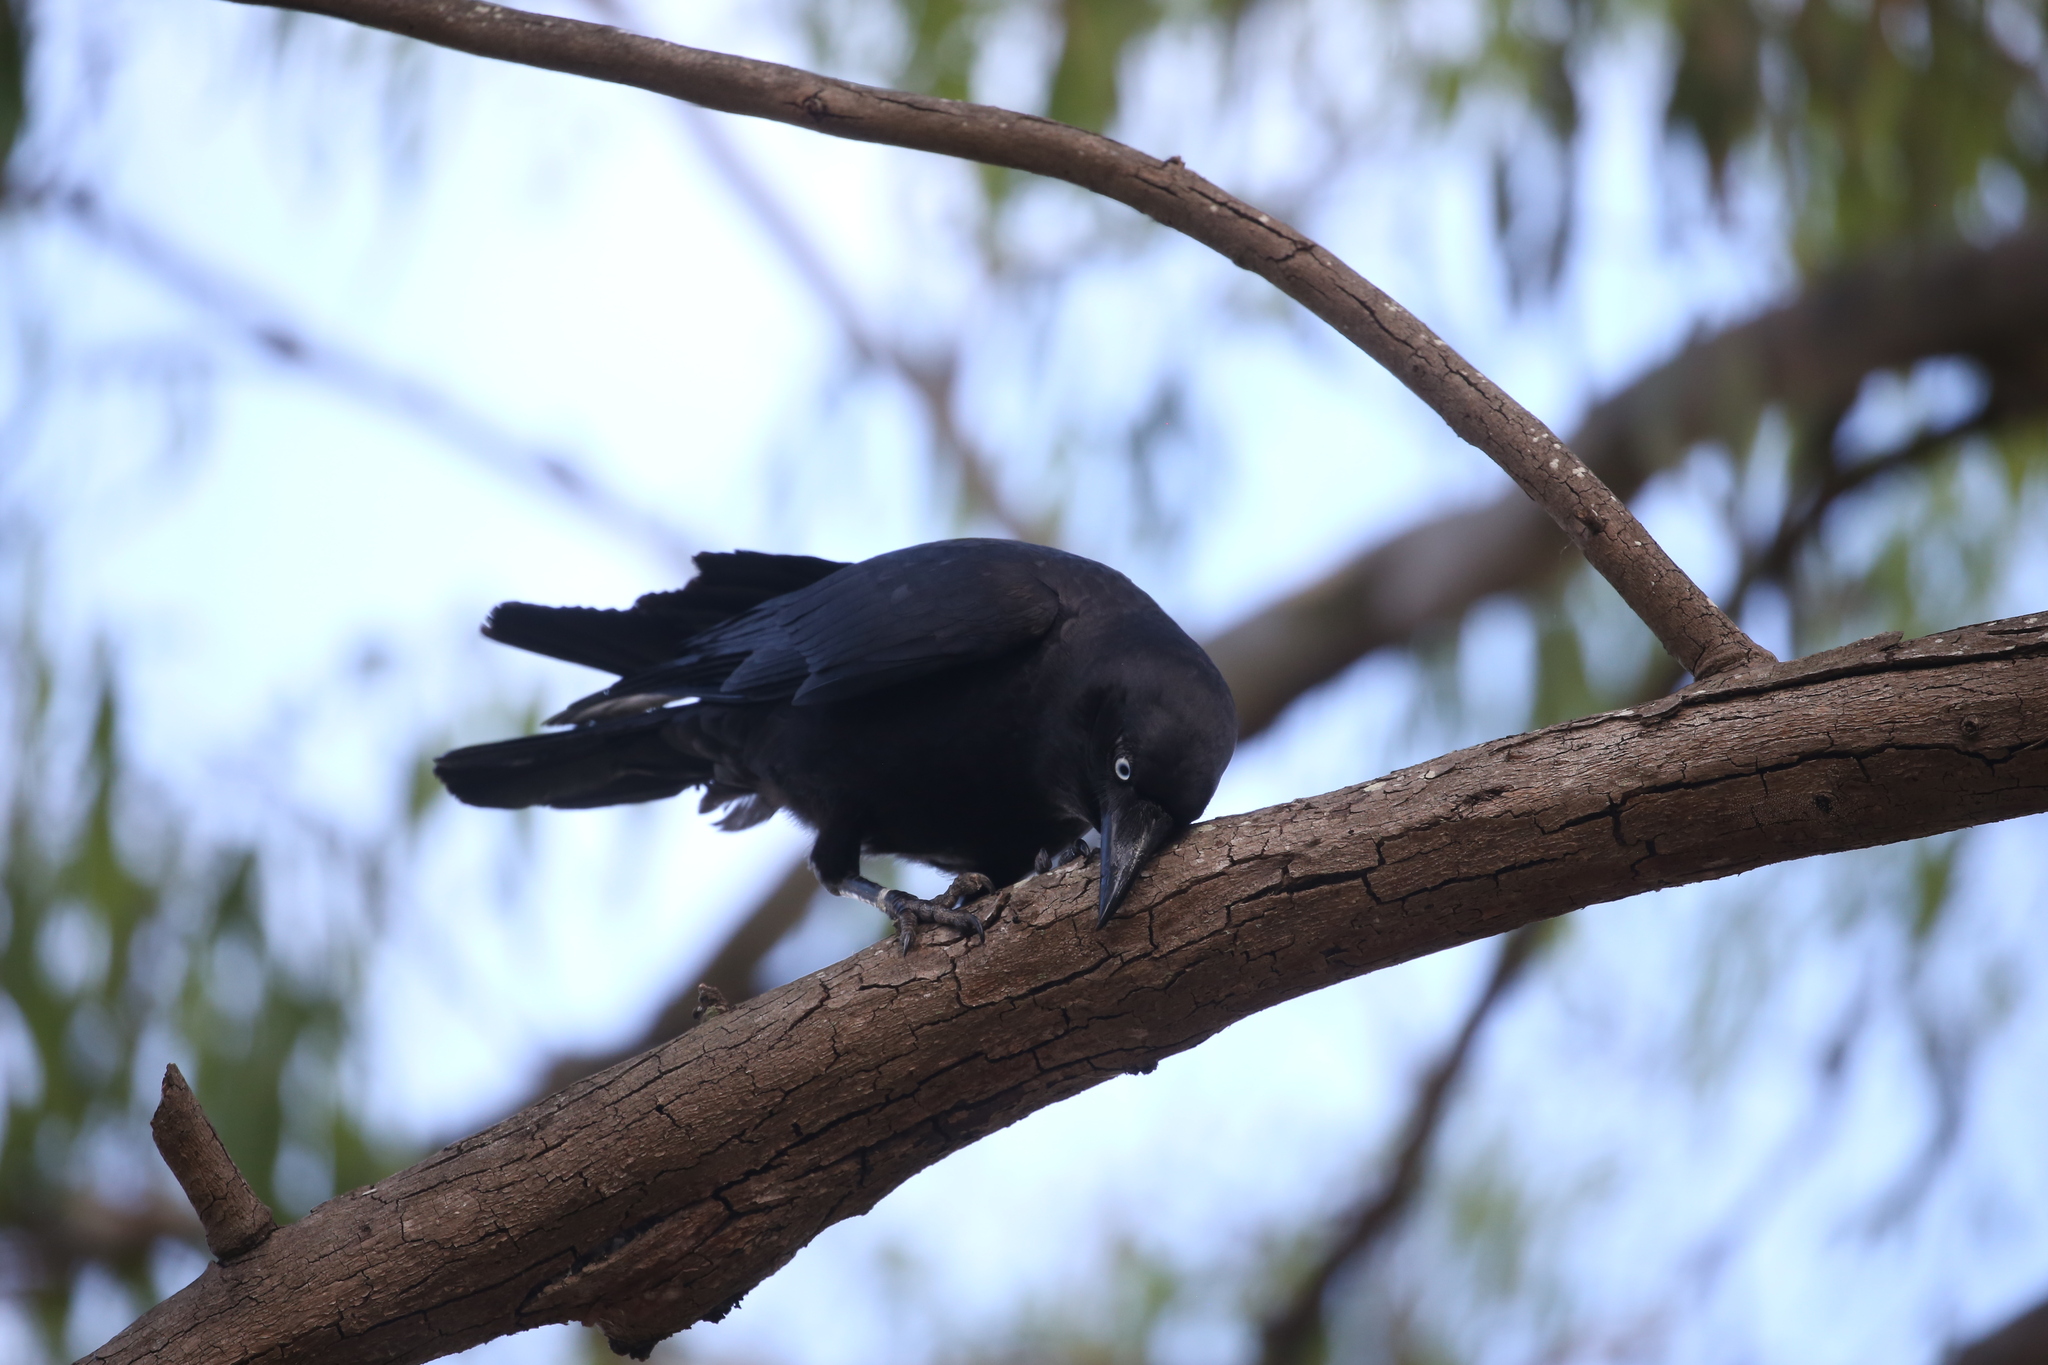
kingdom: Animalia
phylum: Chordata
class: Aves
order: Passeriformes
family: Corvidae
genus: Corvus
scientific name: Corvus orru
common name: Torresian crow
